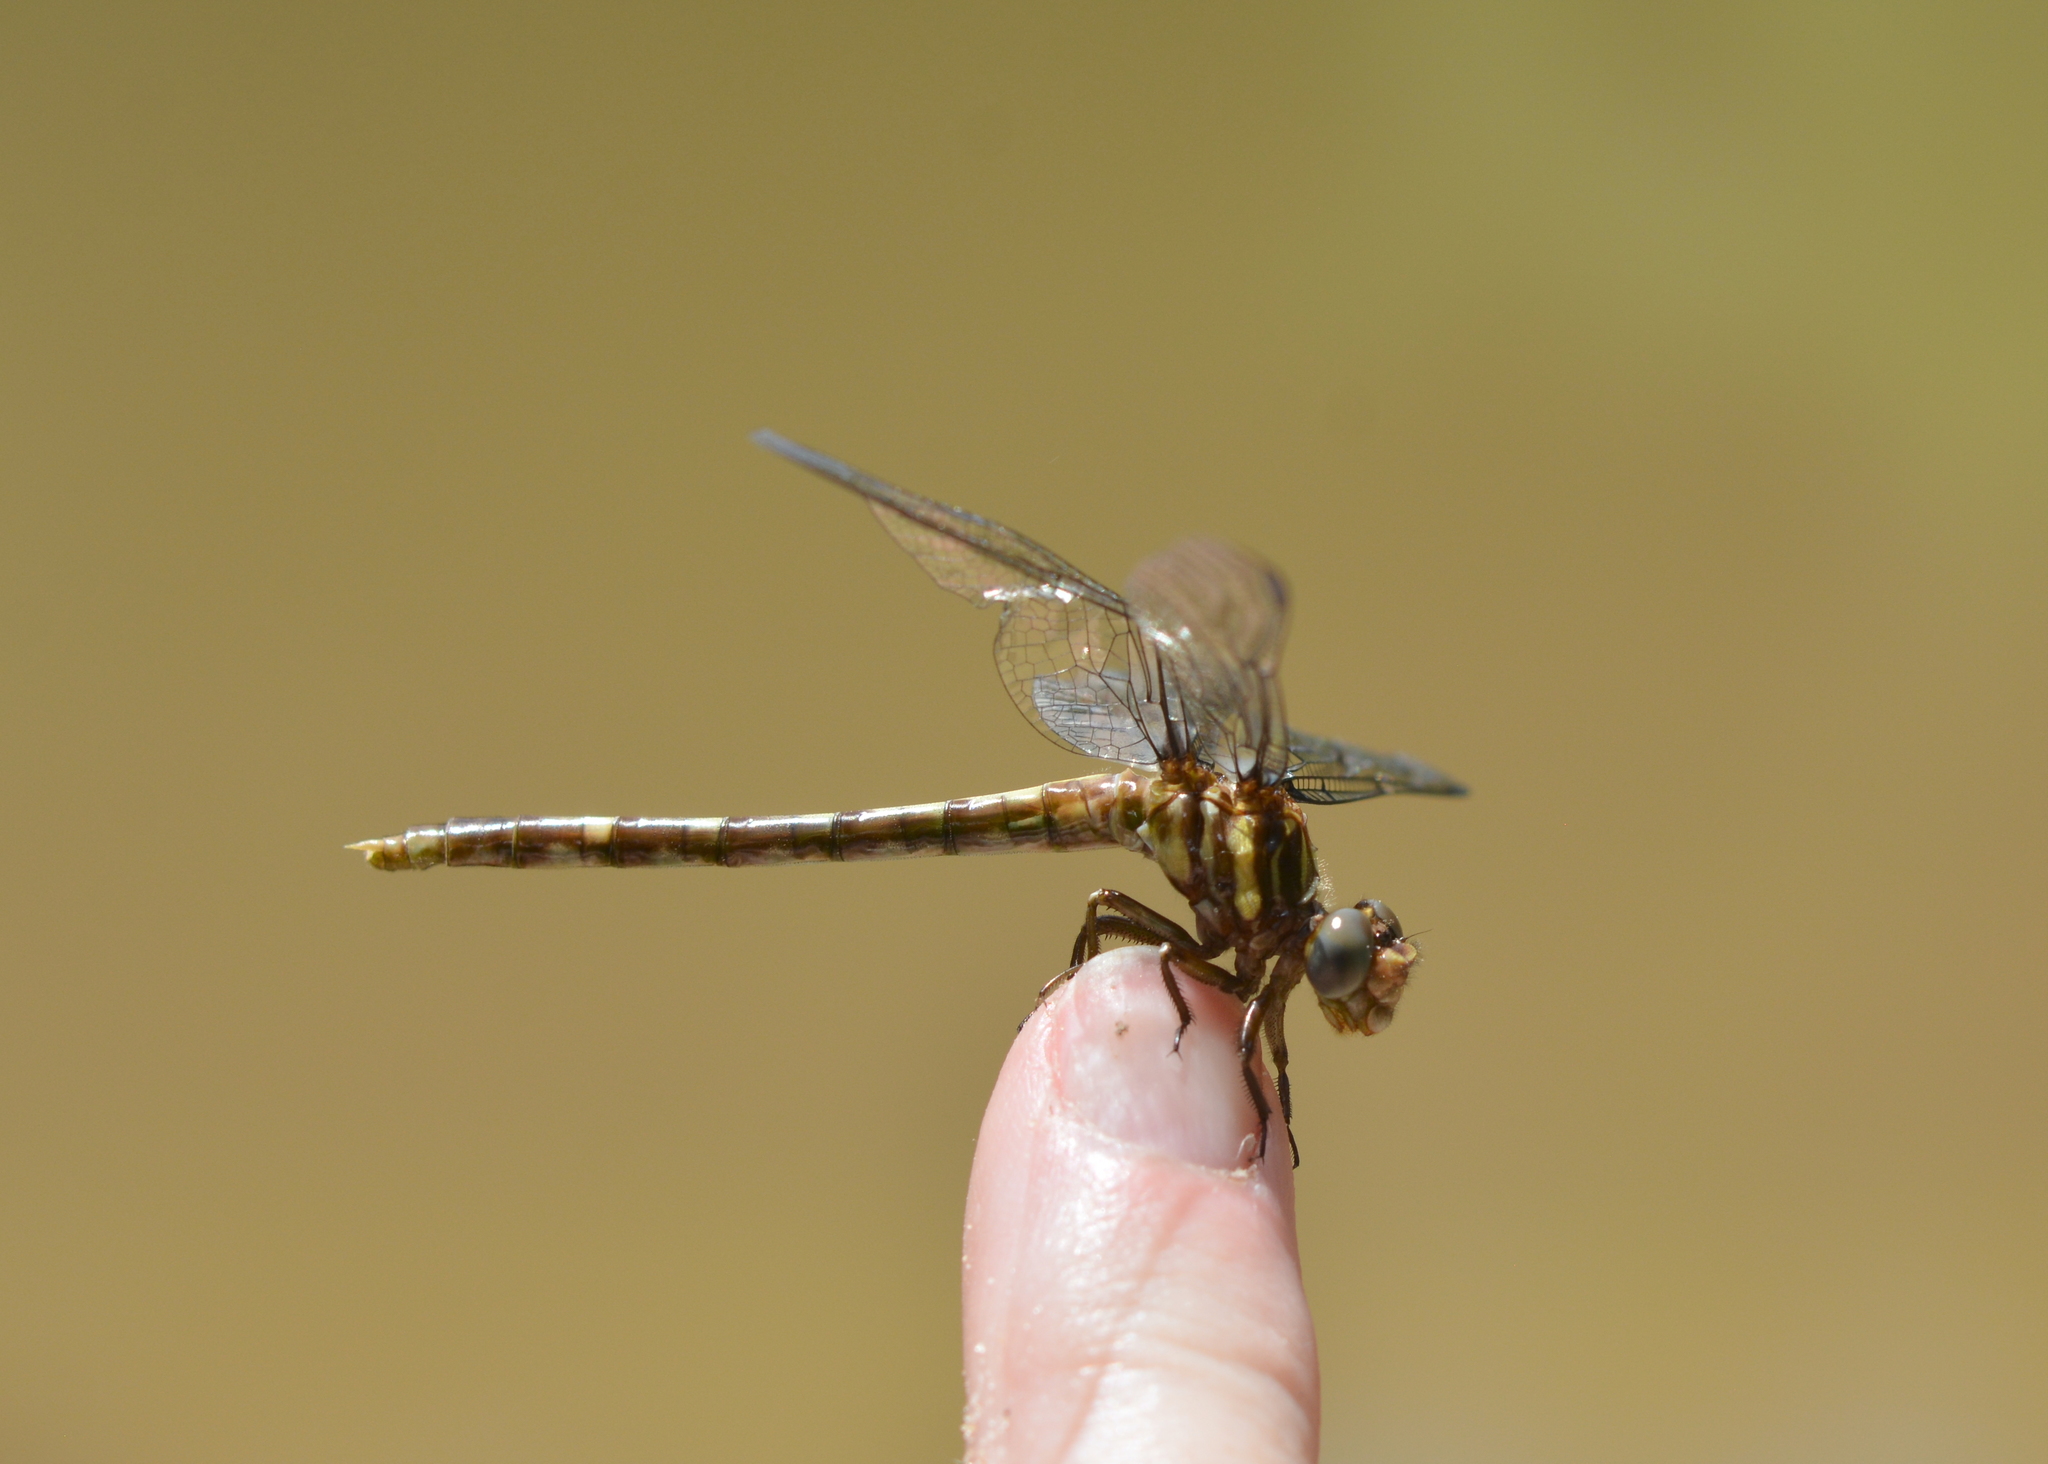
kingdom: Animalia
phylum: Arthropoda
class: Insecta
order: Odonata
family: Gomphidae
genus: Progomphus
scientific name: Progomphus obscurus
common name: Common sanddragon
